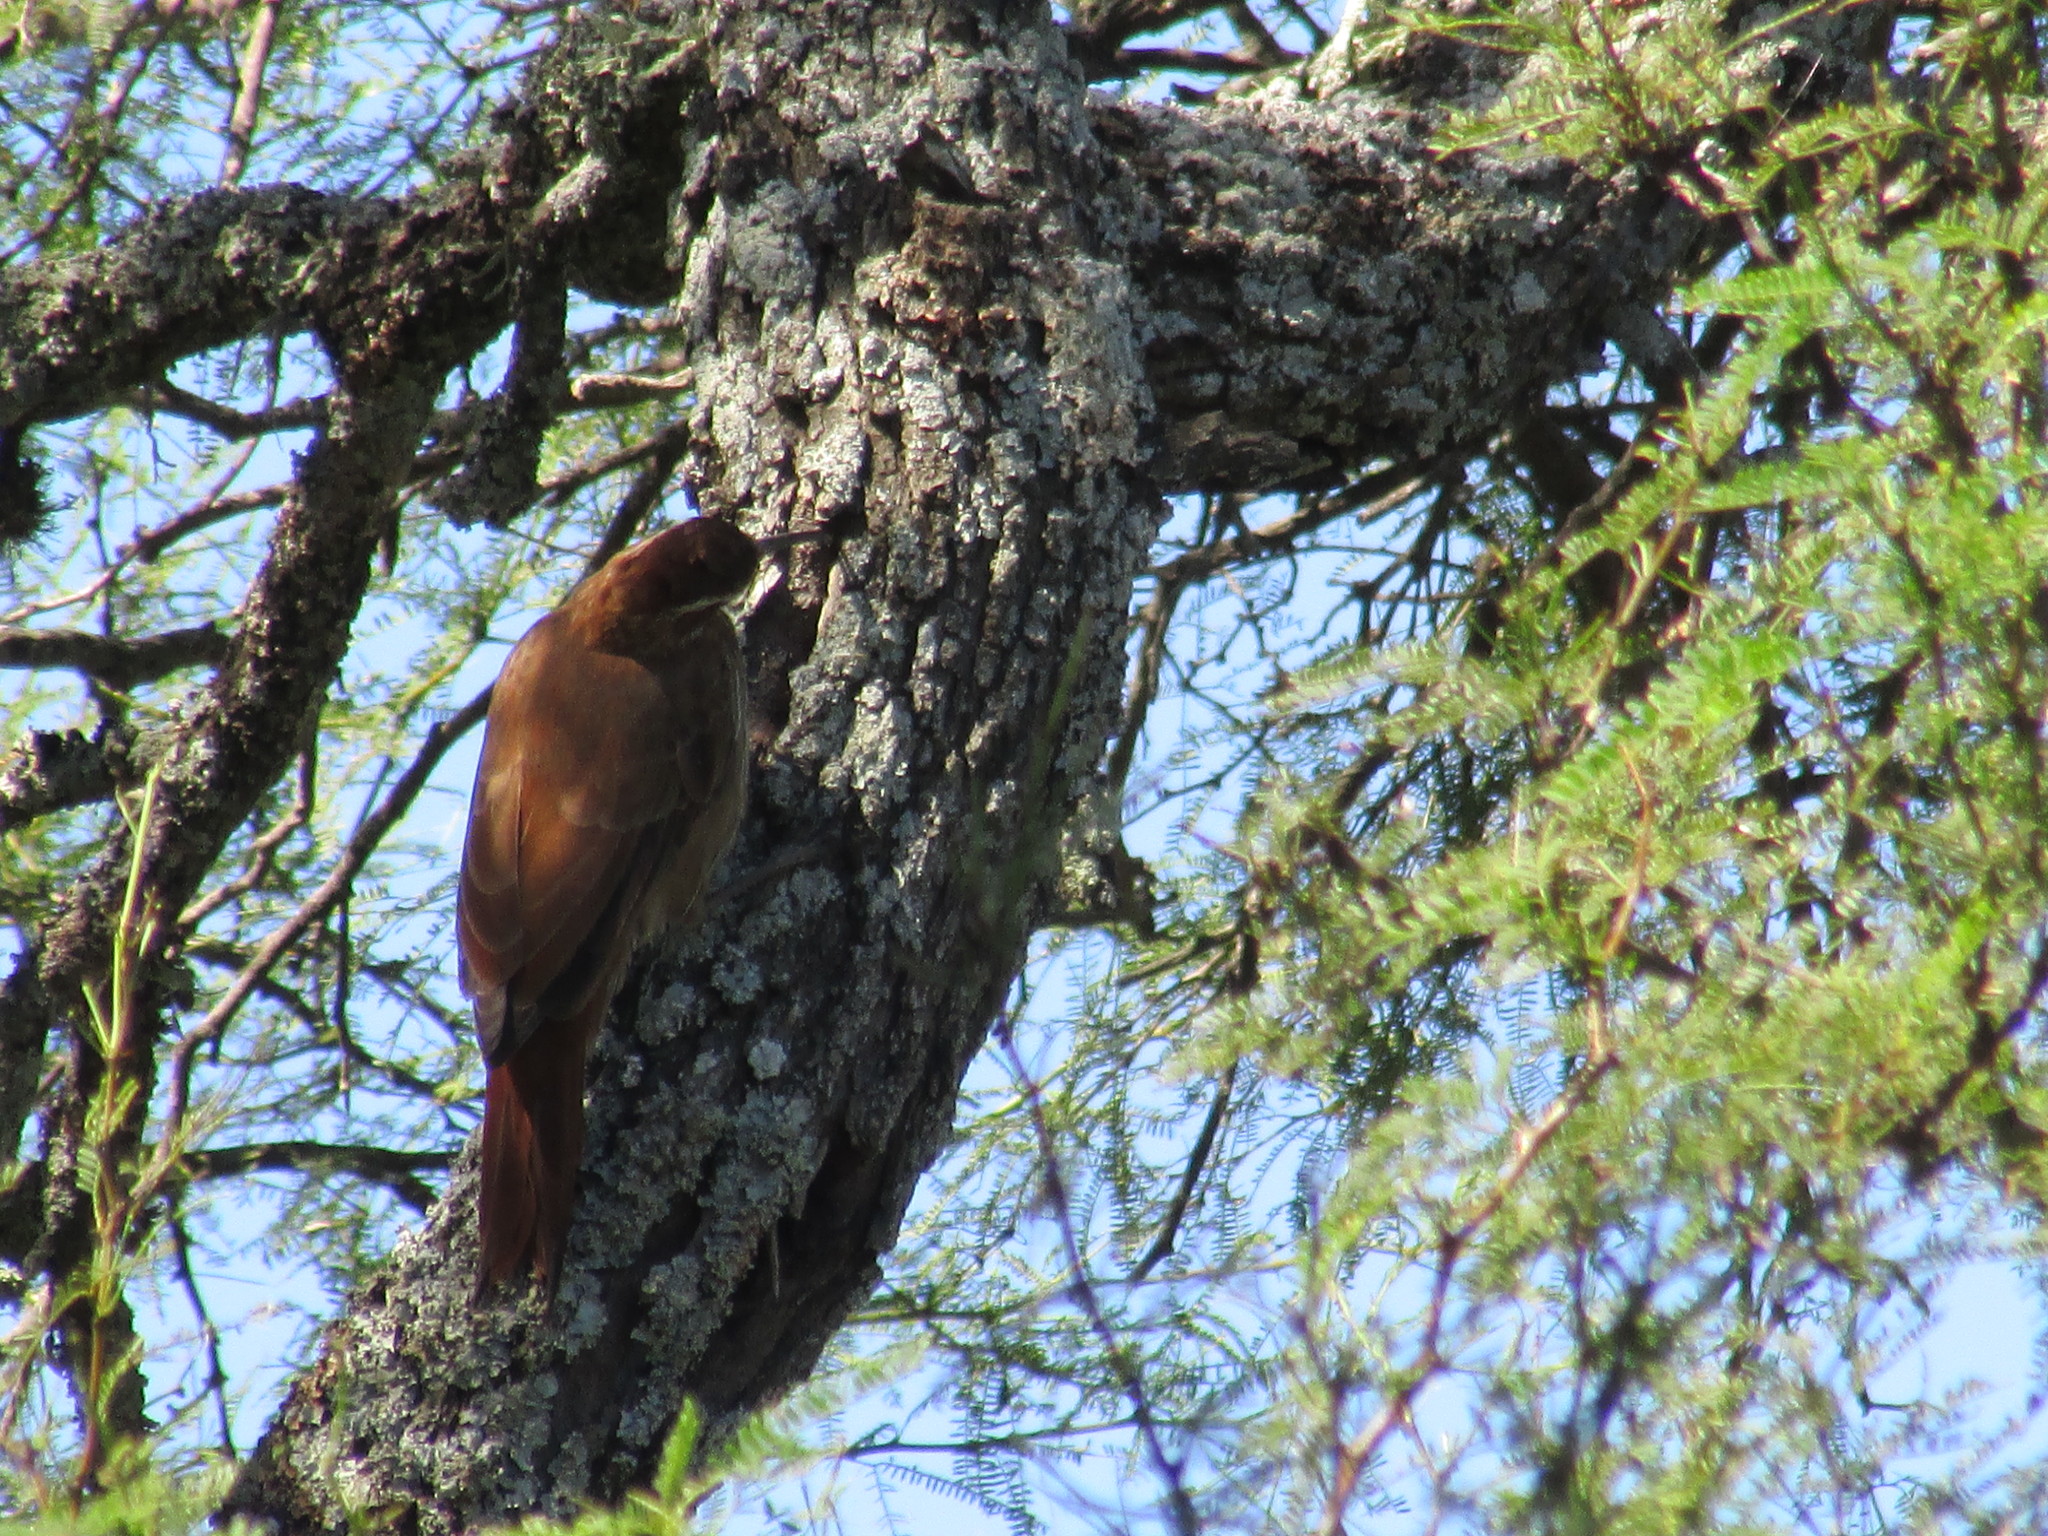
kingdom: Animalia
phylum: Chordata
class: Aves
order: Passeriformes
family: Furnariidae
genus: Drymornis
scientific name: Drymornis bridgesii
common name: Scimitar-billed woodcreeper
